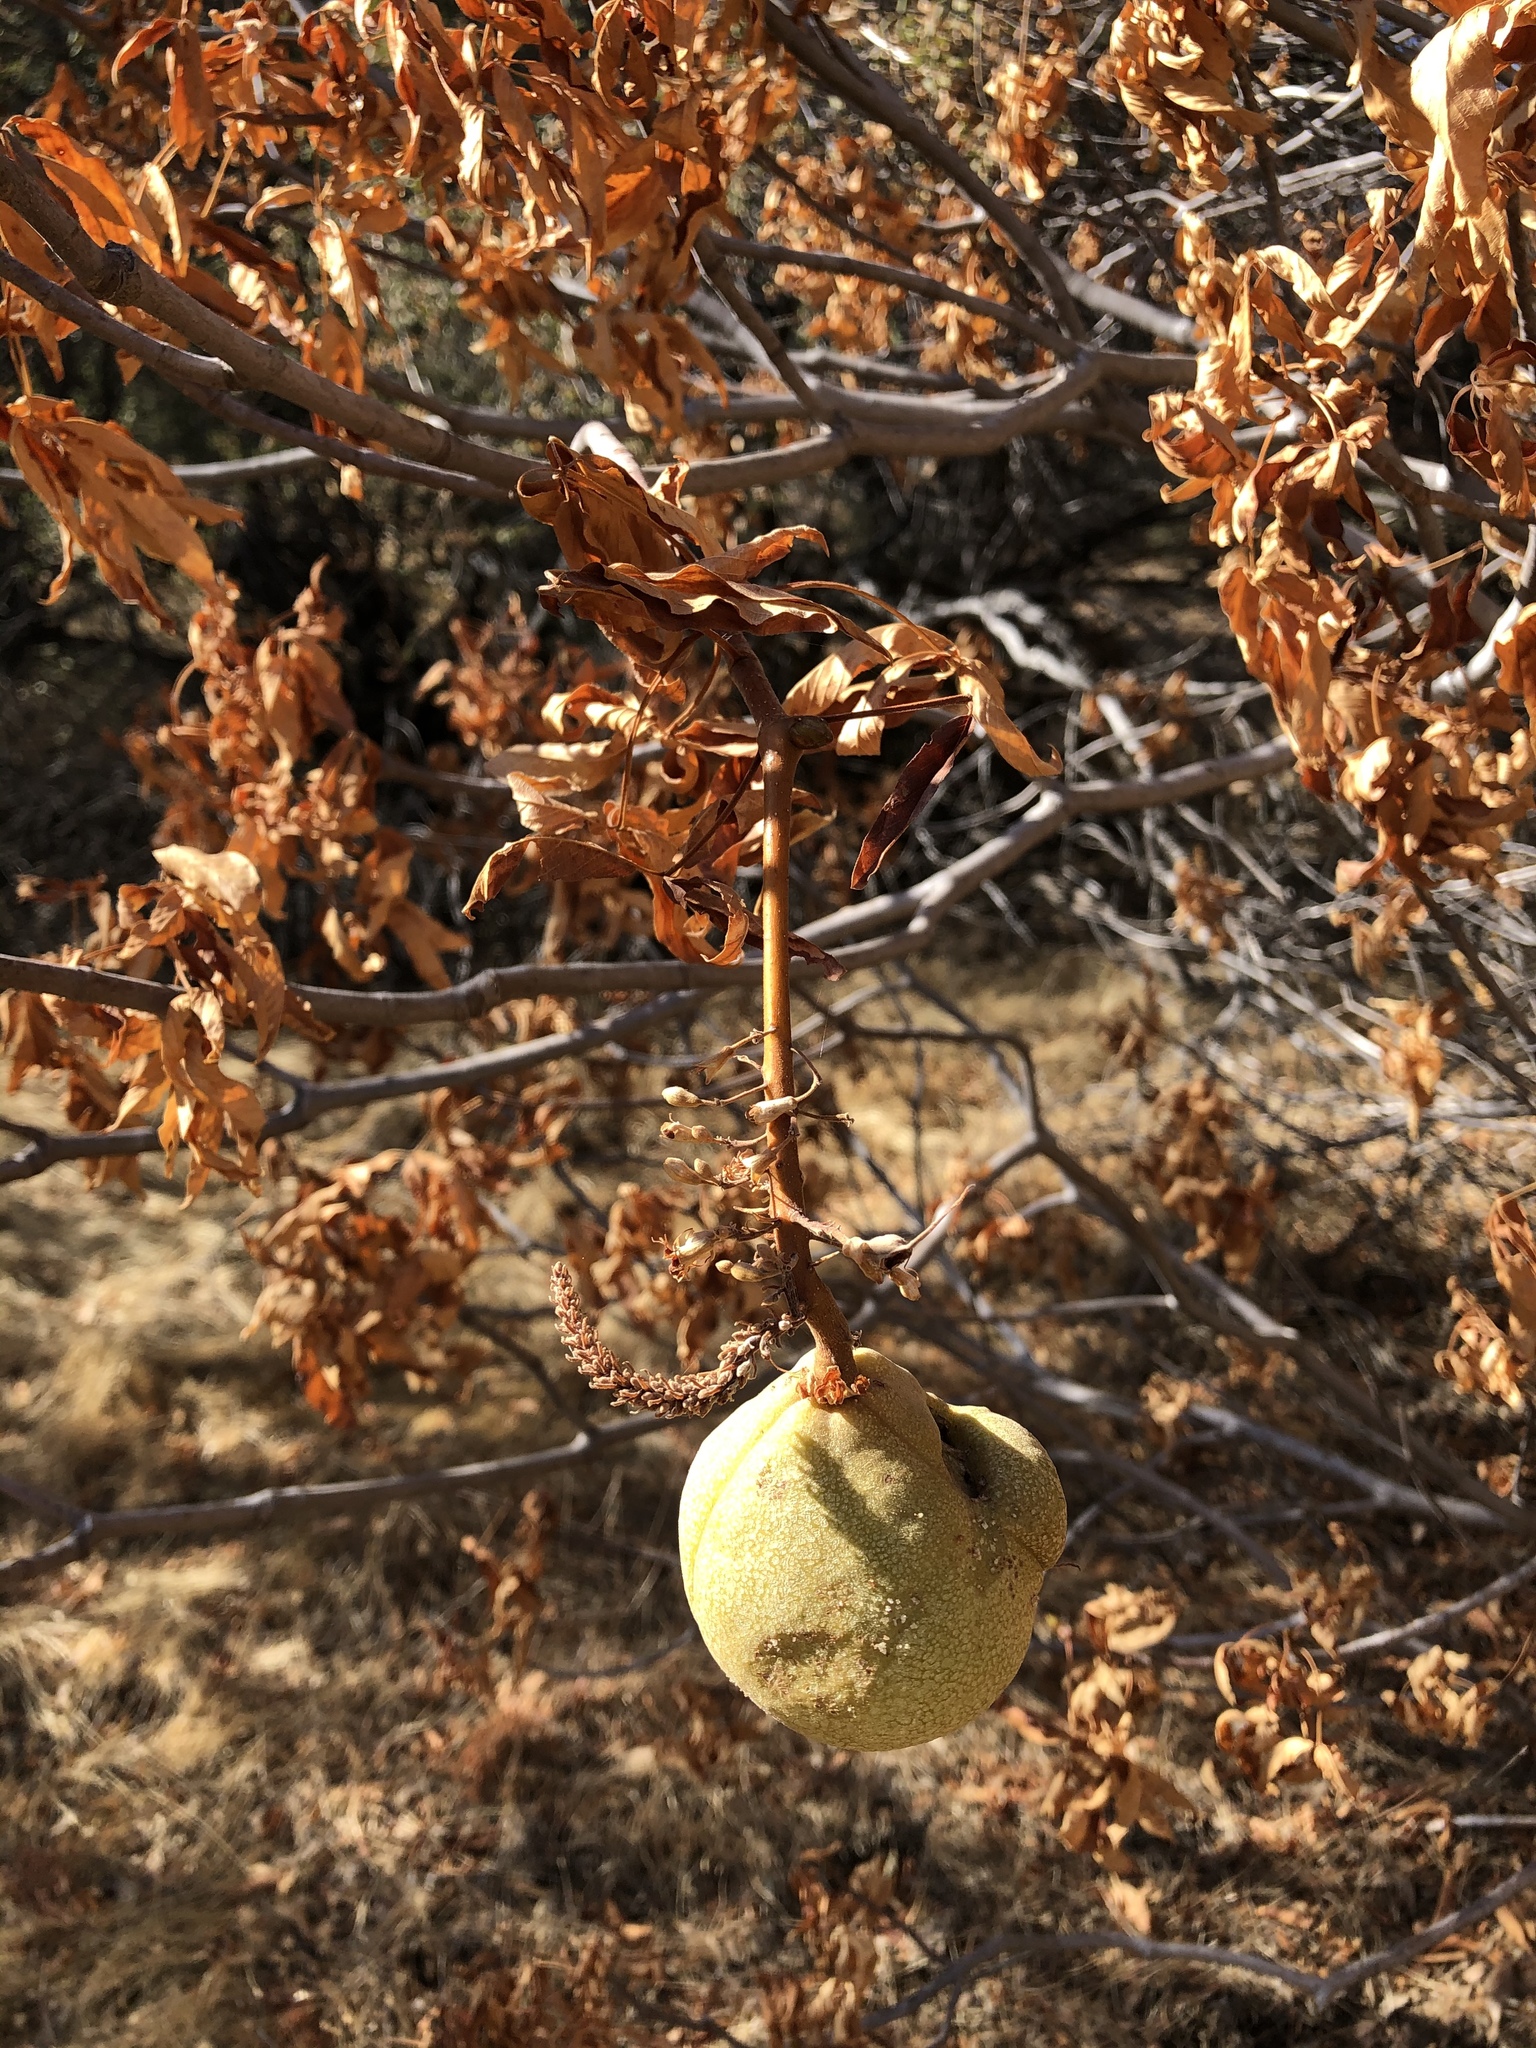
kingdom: Plantae
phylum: Tracheophyta
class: Magnoliopsida
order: Sapindales
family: Sapindaceae
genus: Aesculus
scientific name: Aesculus californica
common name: California buckeye
